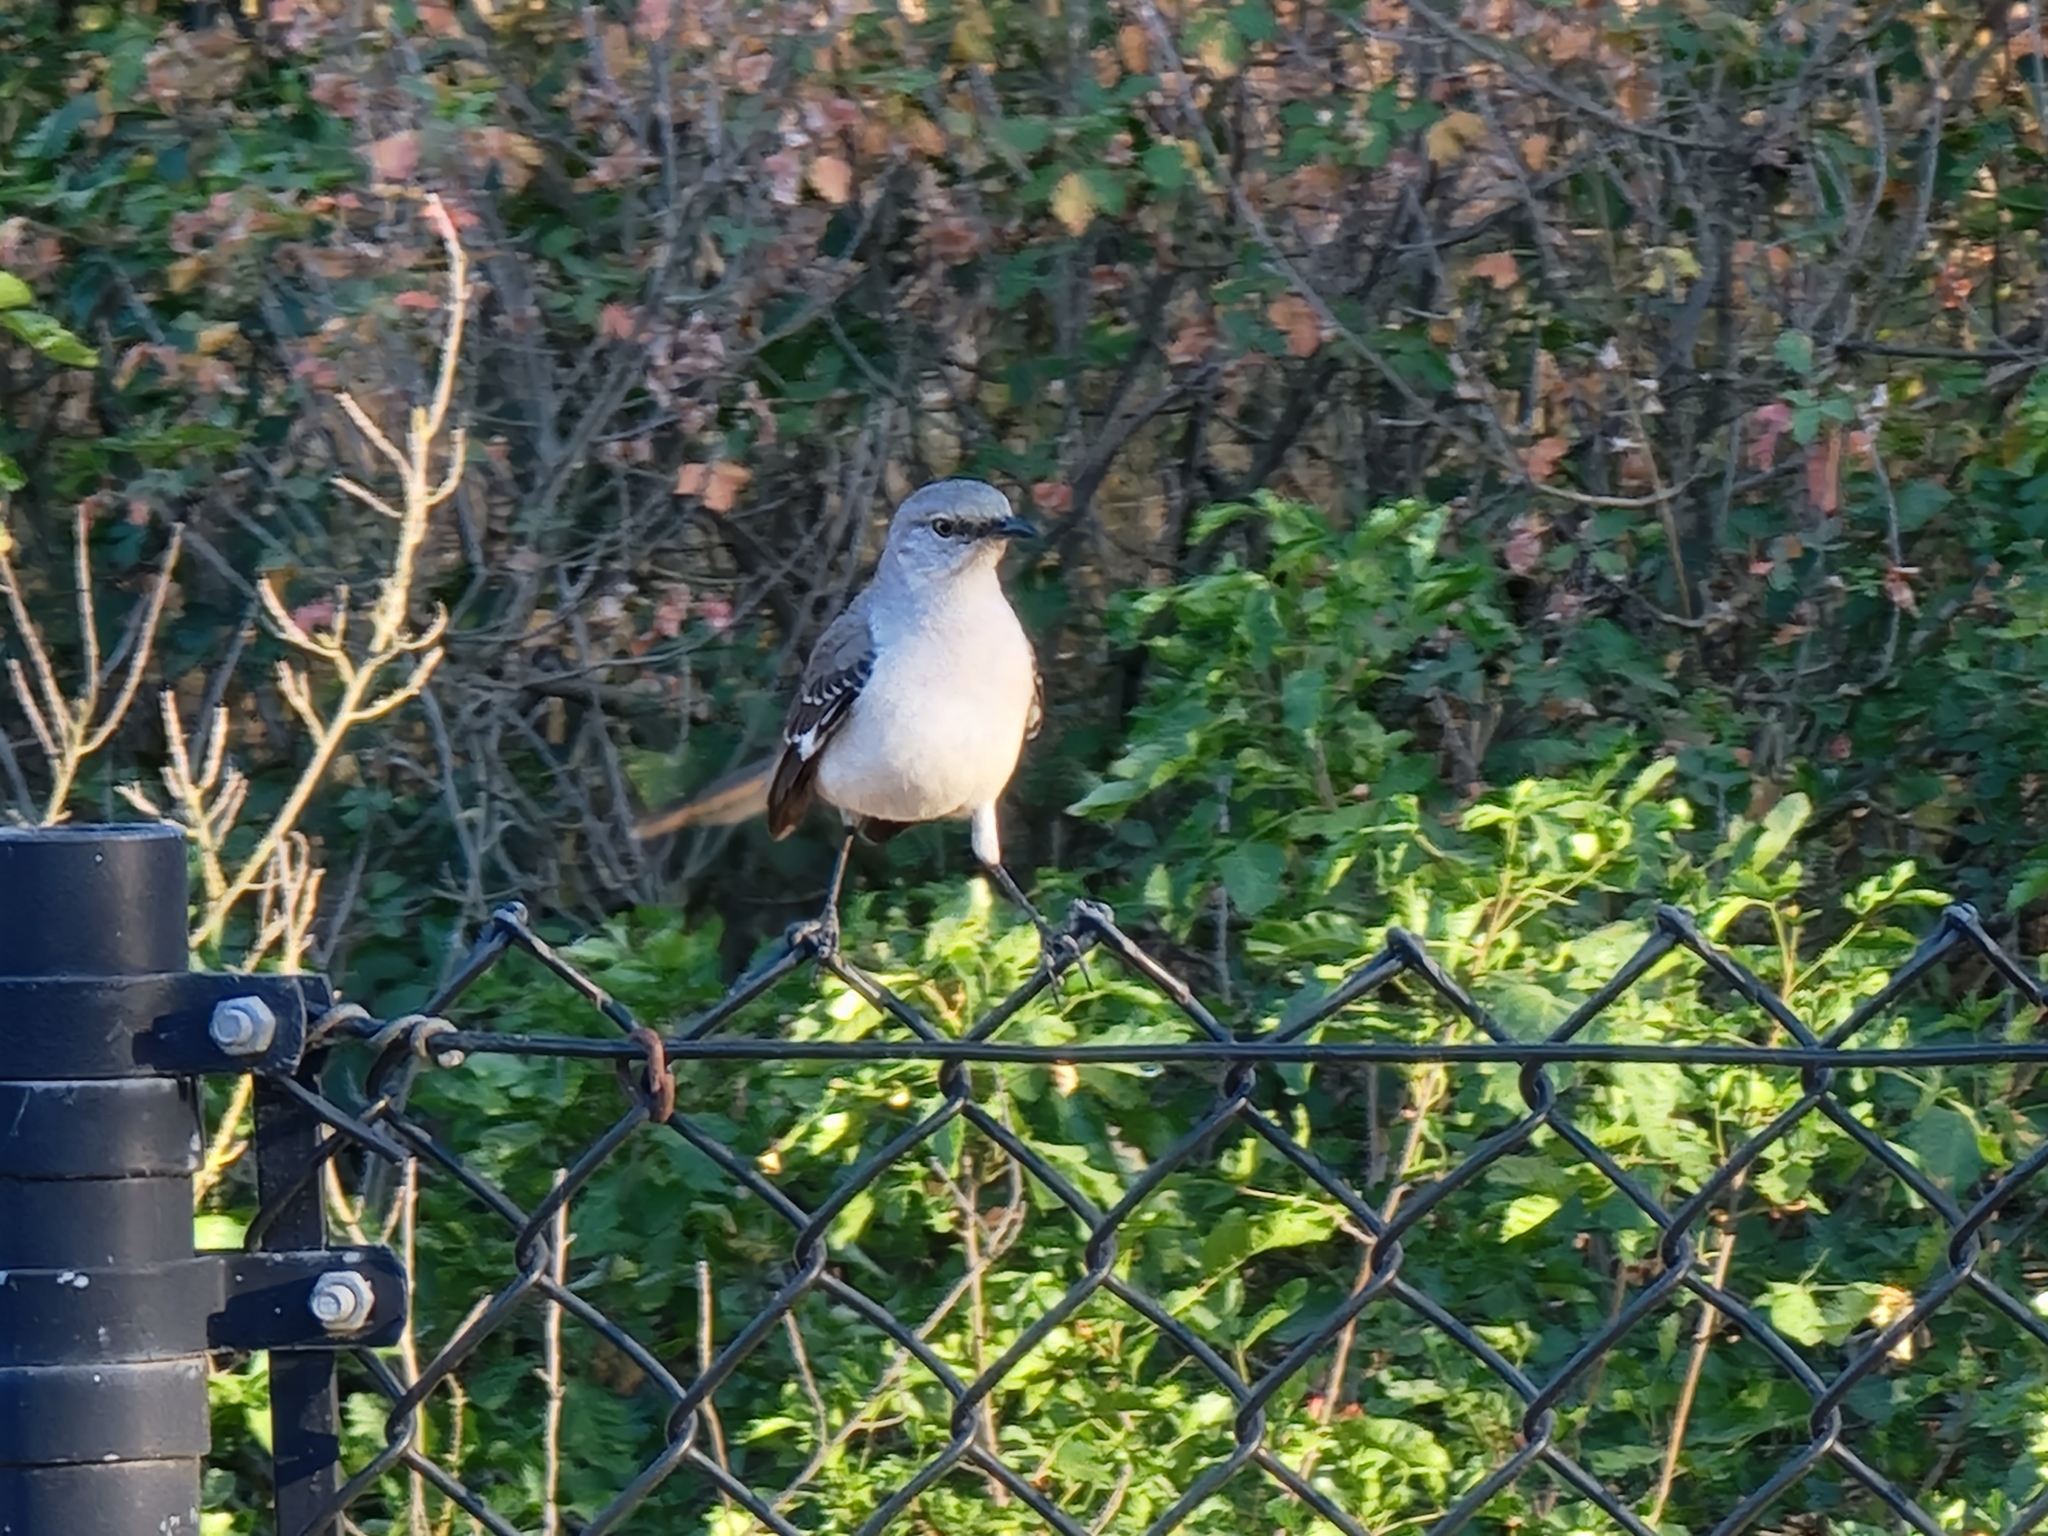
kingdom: Animalia
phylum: Chordata
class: Aves
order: Passeriformes
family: Mimidae
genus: Mimus
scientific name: Mimus polyglottos
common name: Northern mockingbird
